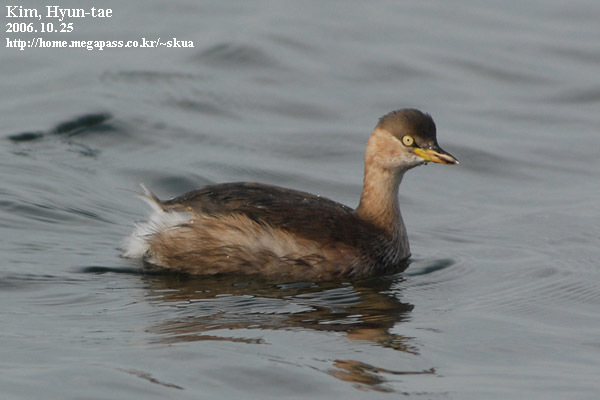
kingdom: Animalia
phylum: Chordata
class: Aves
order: Podicipediformes
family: Podicipedidae
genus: Tachybaptus
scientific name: Tachybaptus ruficollis
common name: Little grebe
